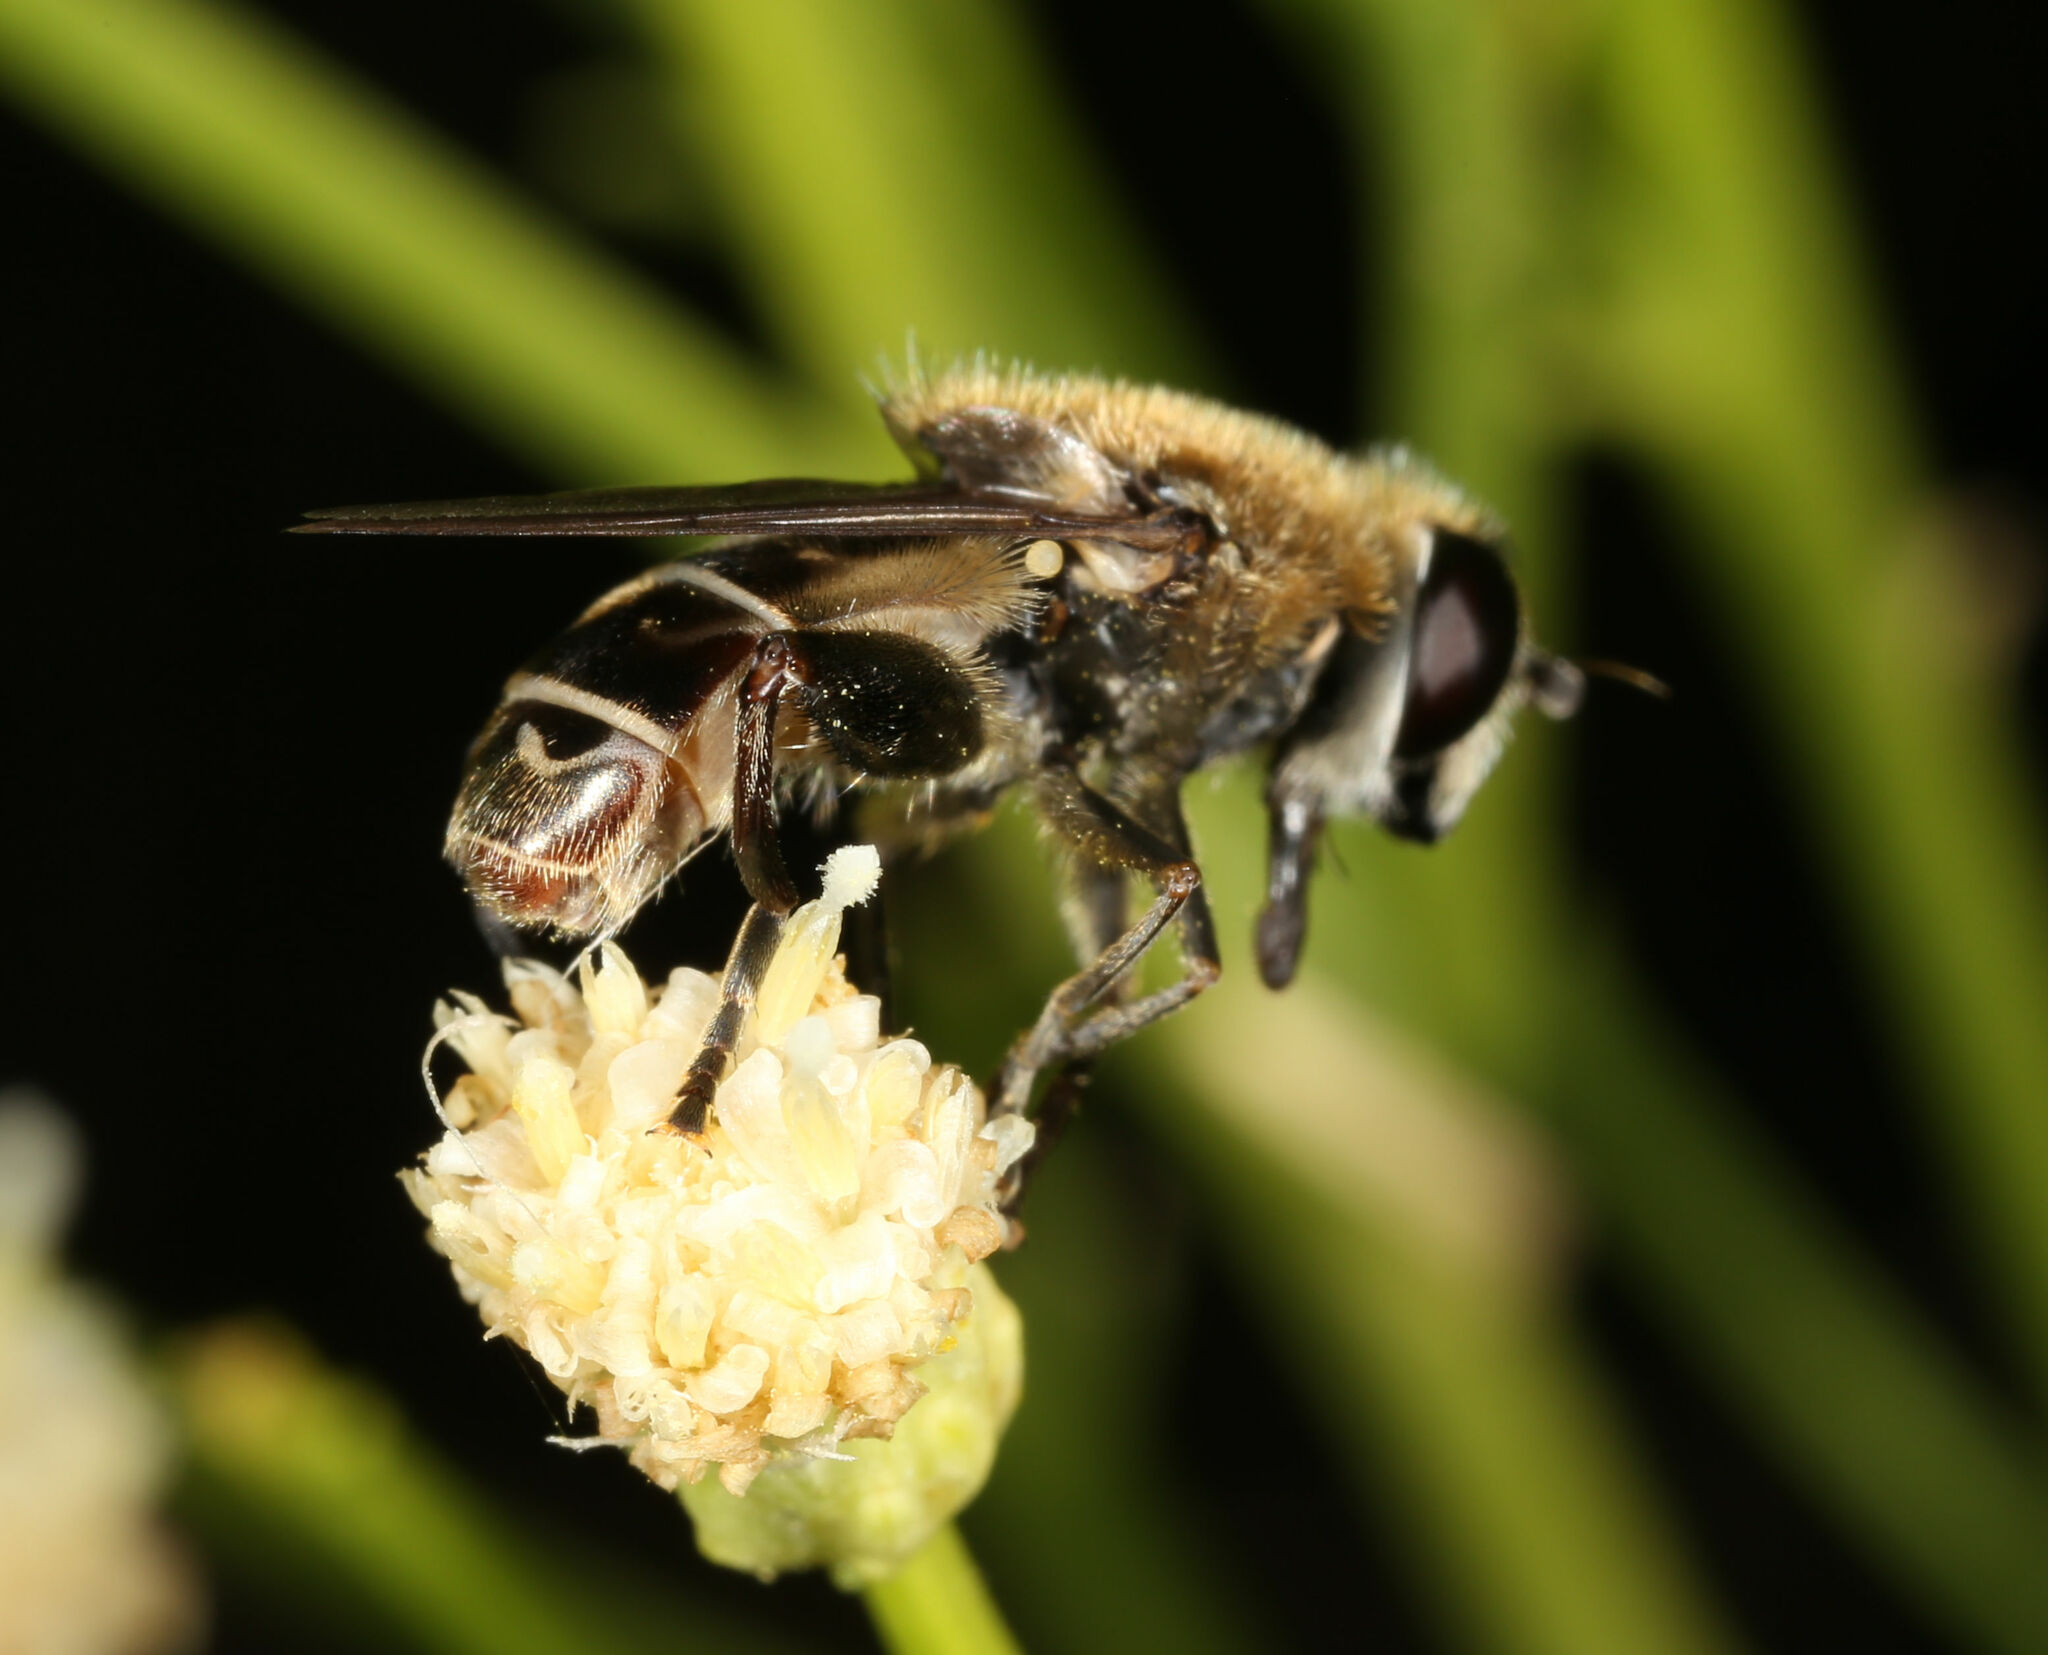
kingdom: Animalia
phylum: Arthropoda
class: Insecta
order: Diptera
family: Syrphidae
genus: Asemosyrphus
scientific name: Asemosyrphus polygrammus
